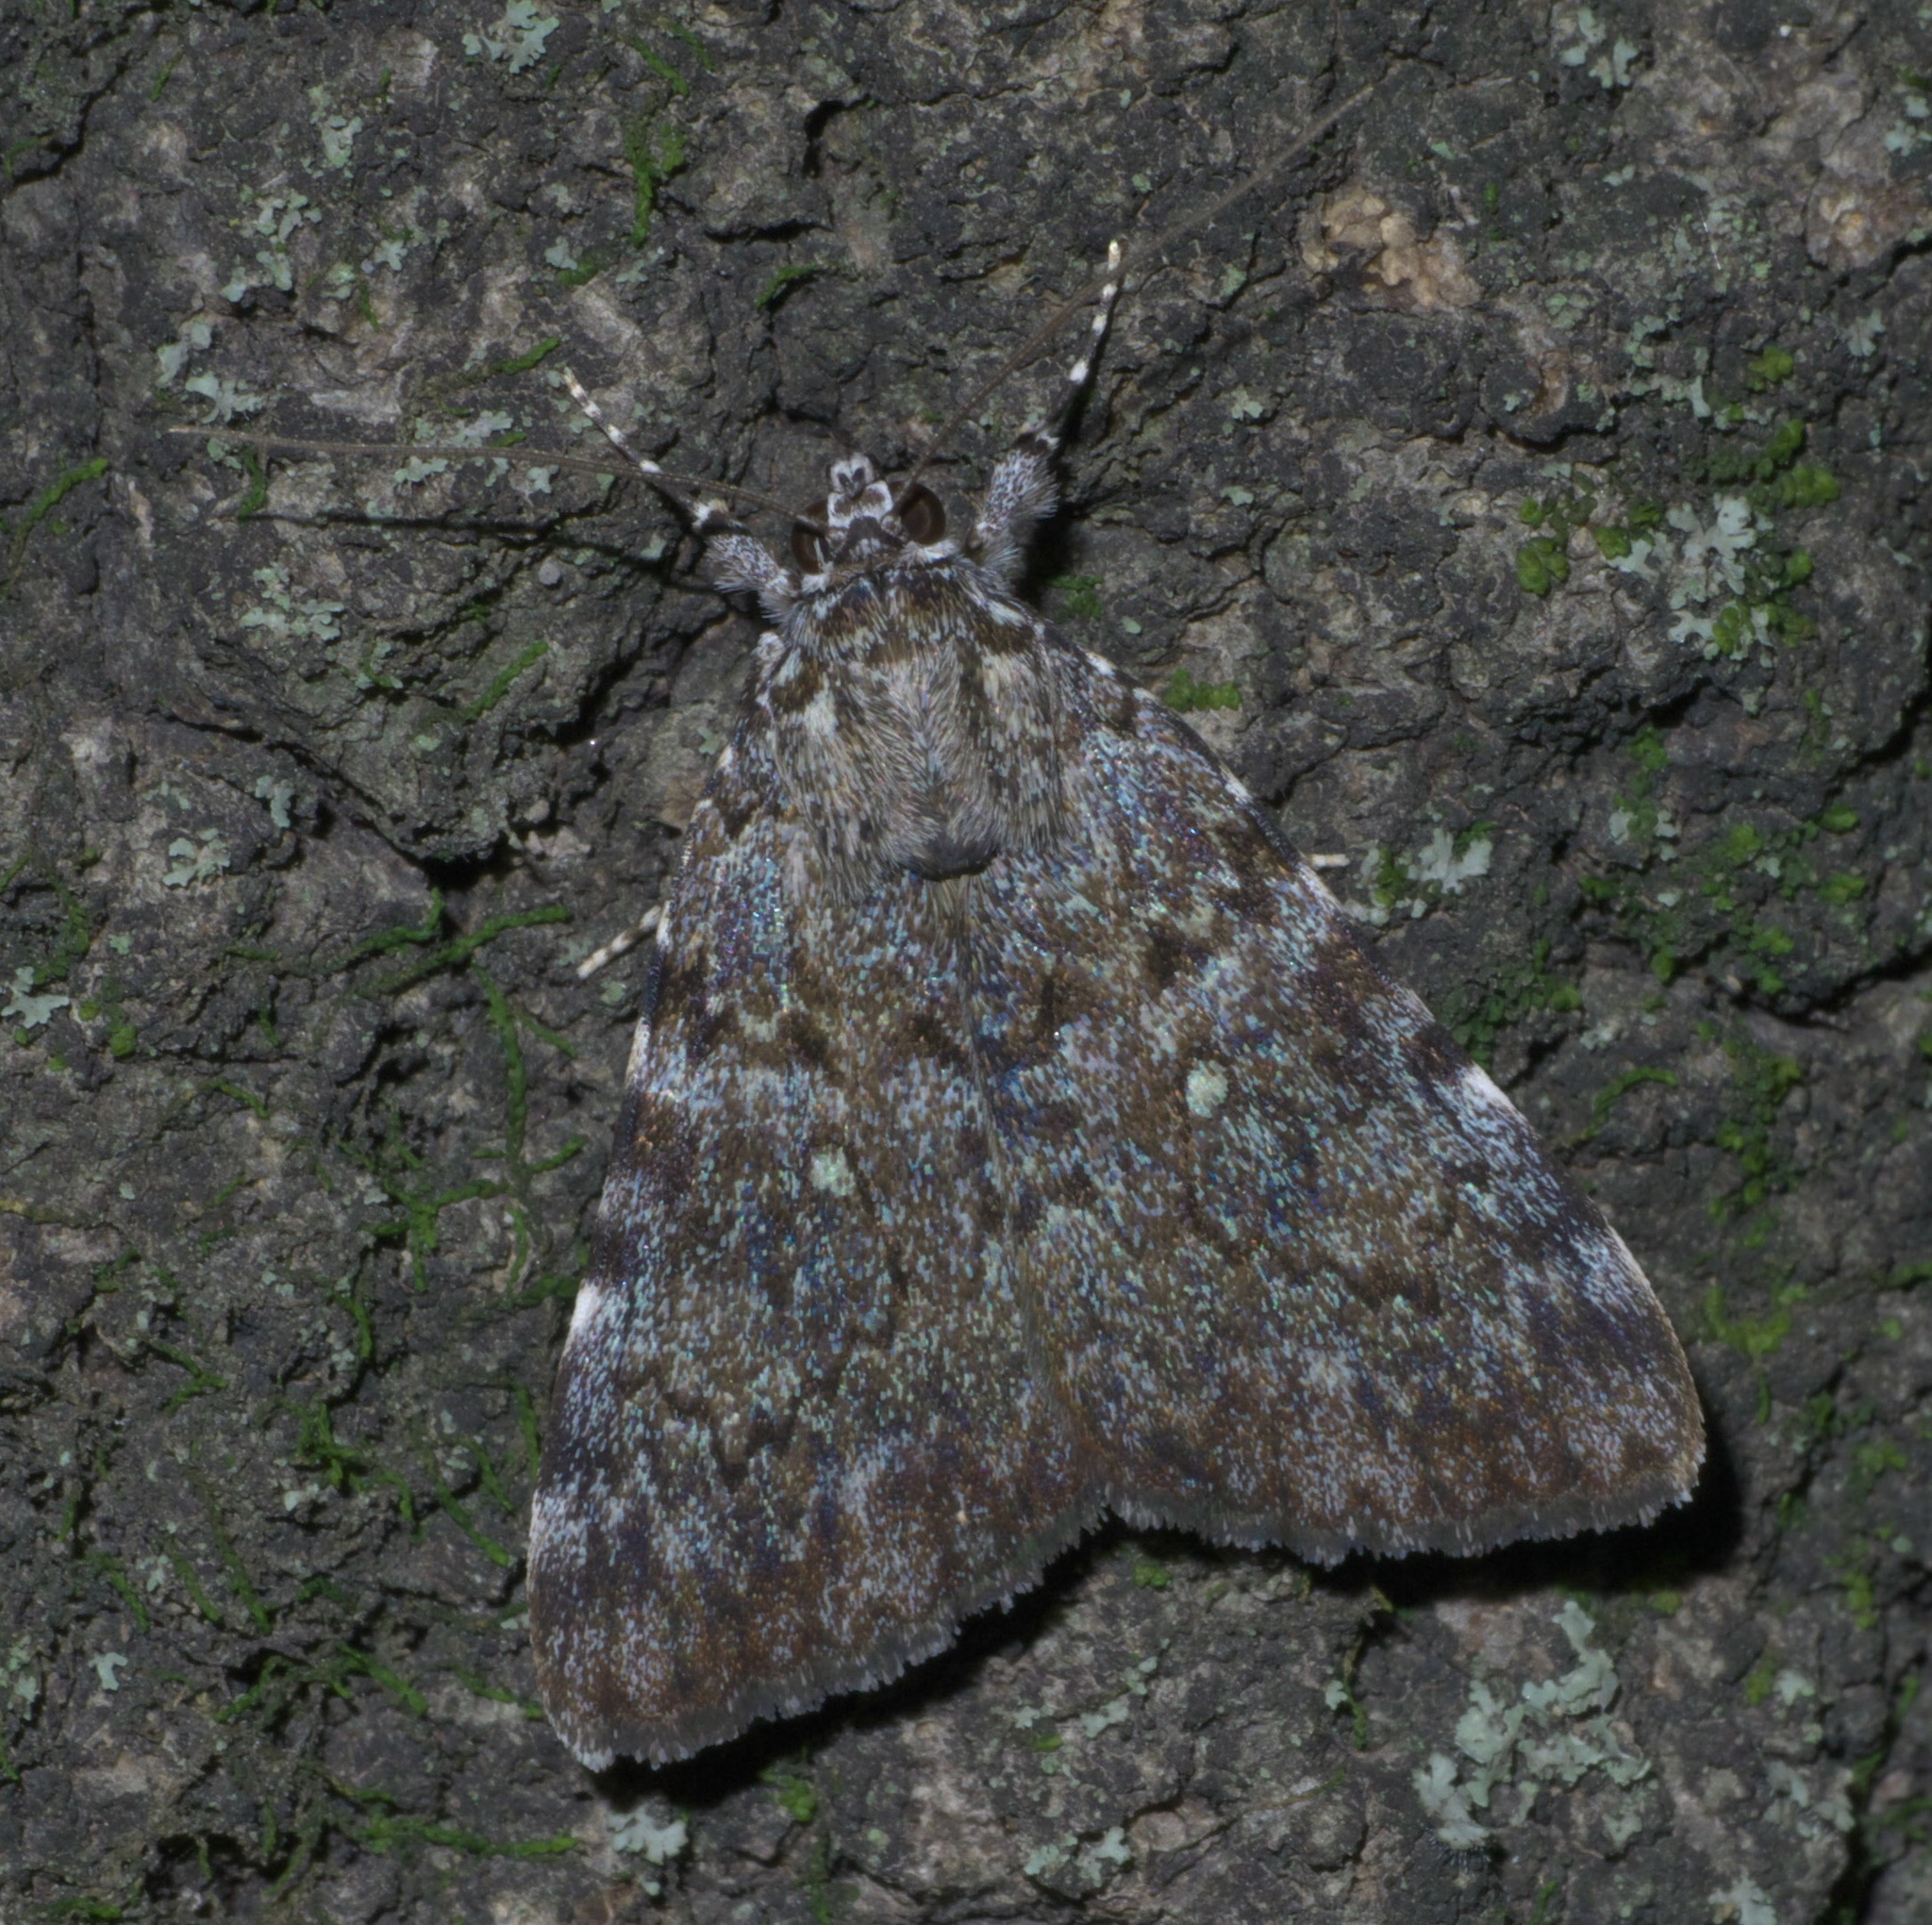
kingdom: Animalia
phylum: Arthropoda
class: Insecta
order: Lepidoptera
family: Erebidae
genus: Catocala
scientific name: Catocala jair
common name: Jair underwing
